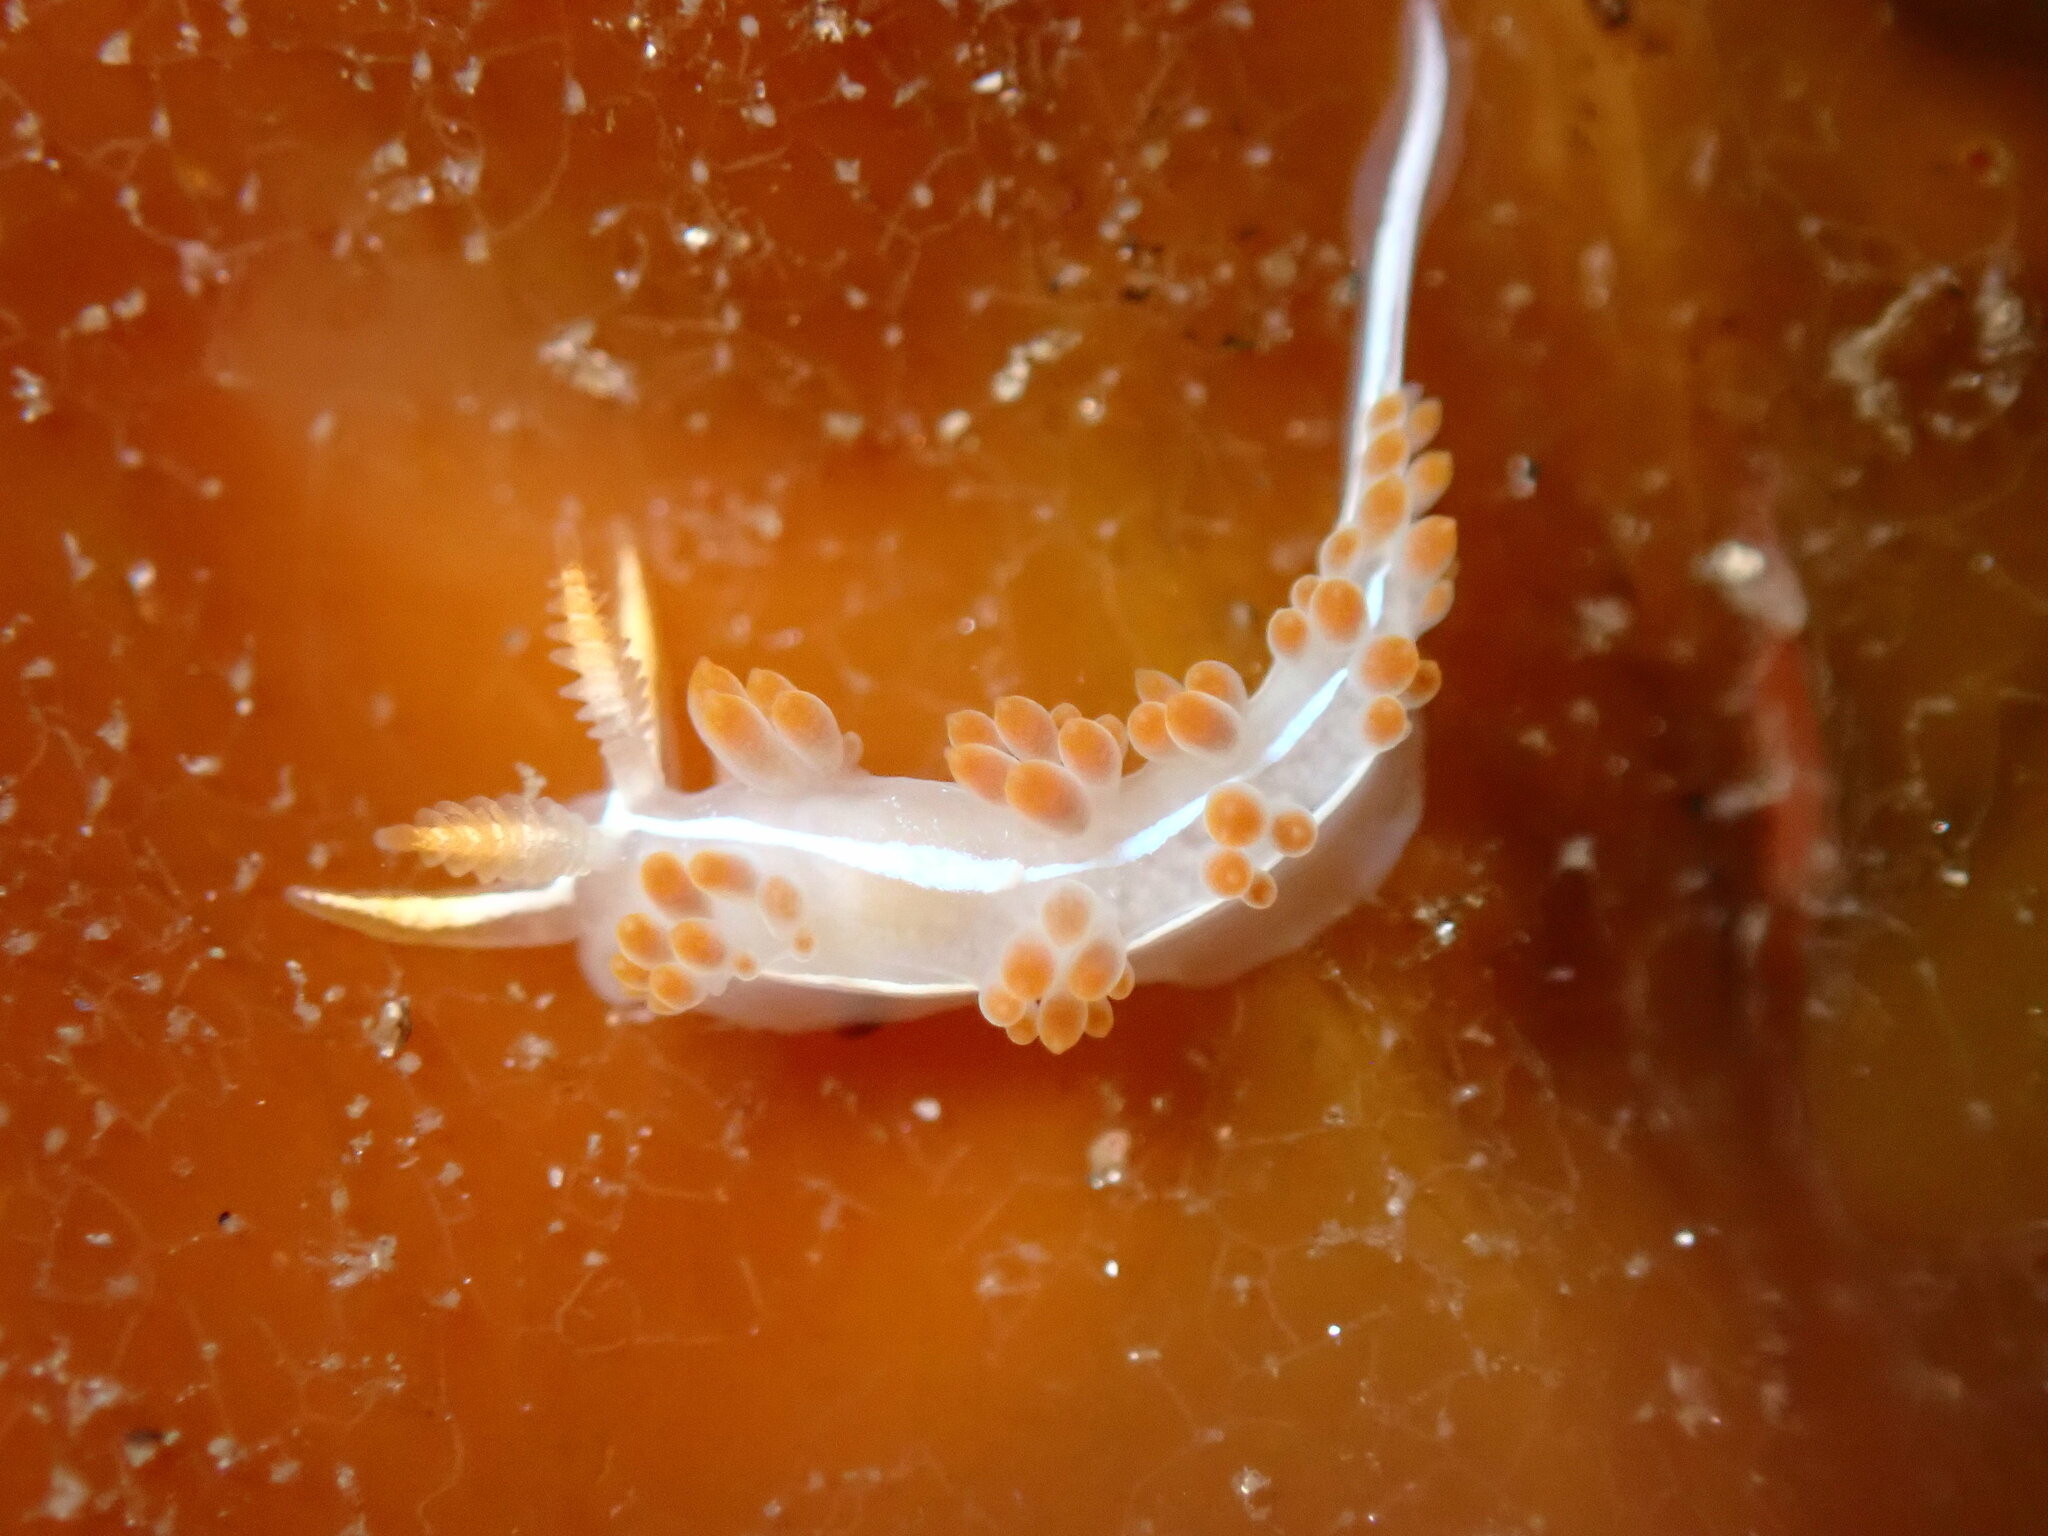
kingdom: Animalia
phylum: Mollusca
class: Gastropoda
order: Nudibranchia
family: Coryphellidae
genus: Coryphella
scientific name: Coryphella trilineata
